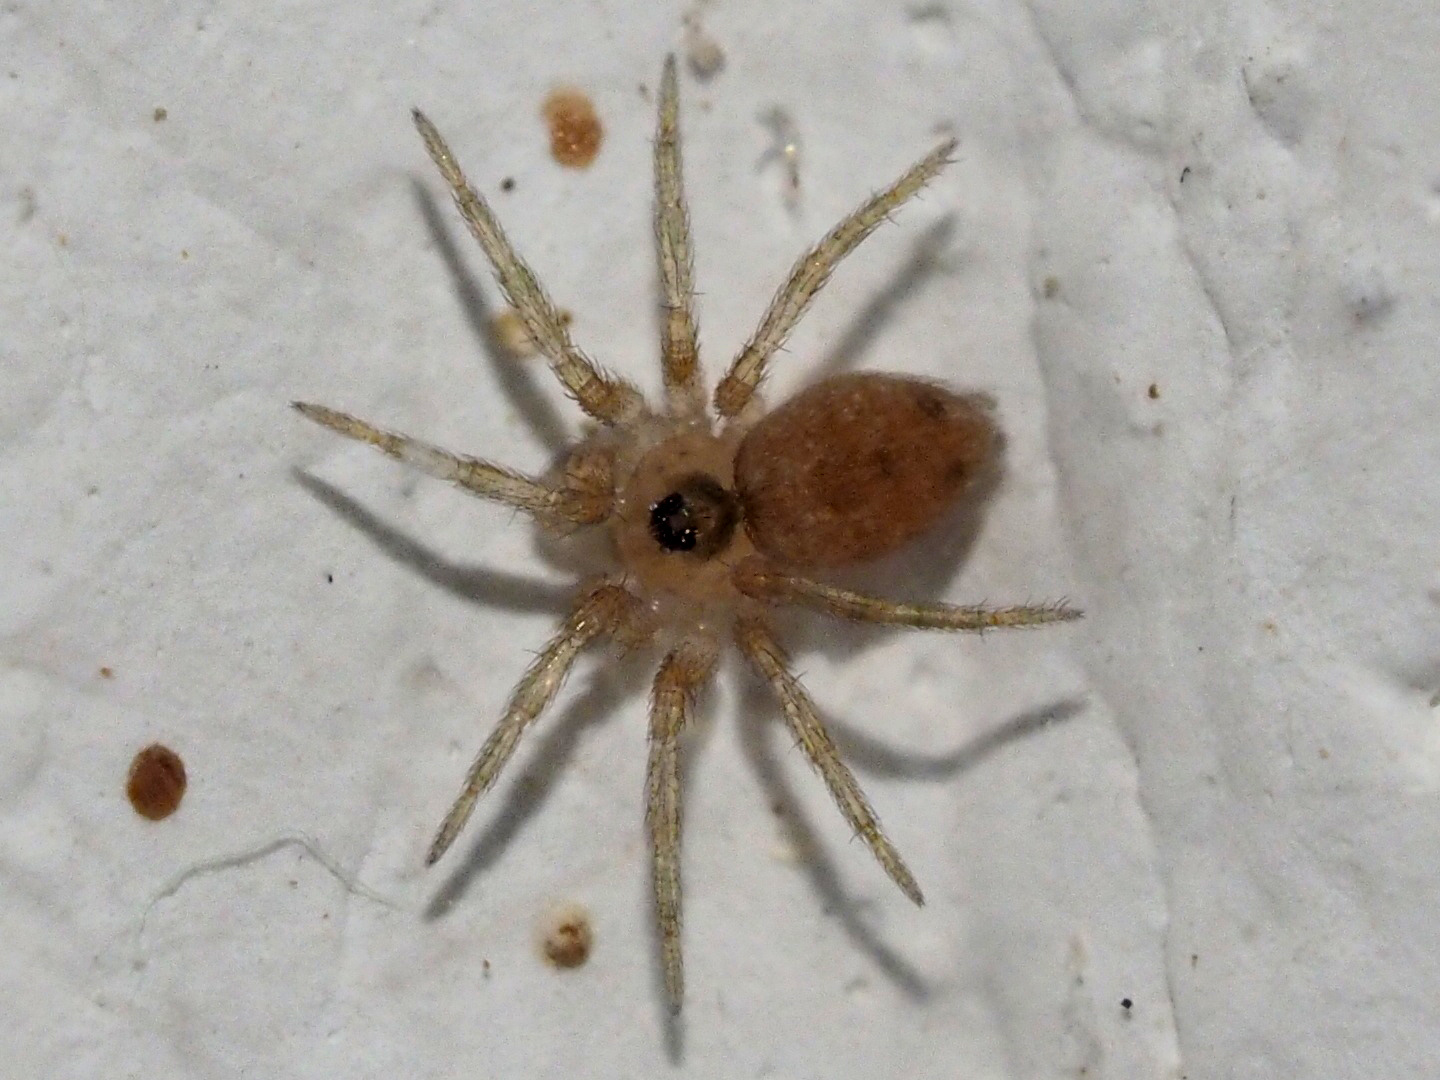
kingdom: Animalia
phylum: Arthropoda
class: Arachnida
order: Araneae
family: Oecobiidae
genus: Oecobius
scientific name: Oecobius navus
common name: Flatmesh weaver
